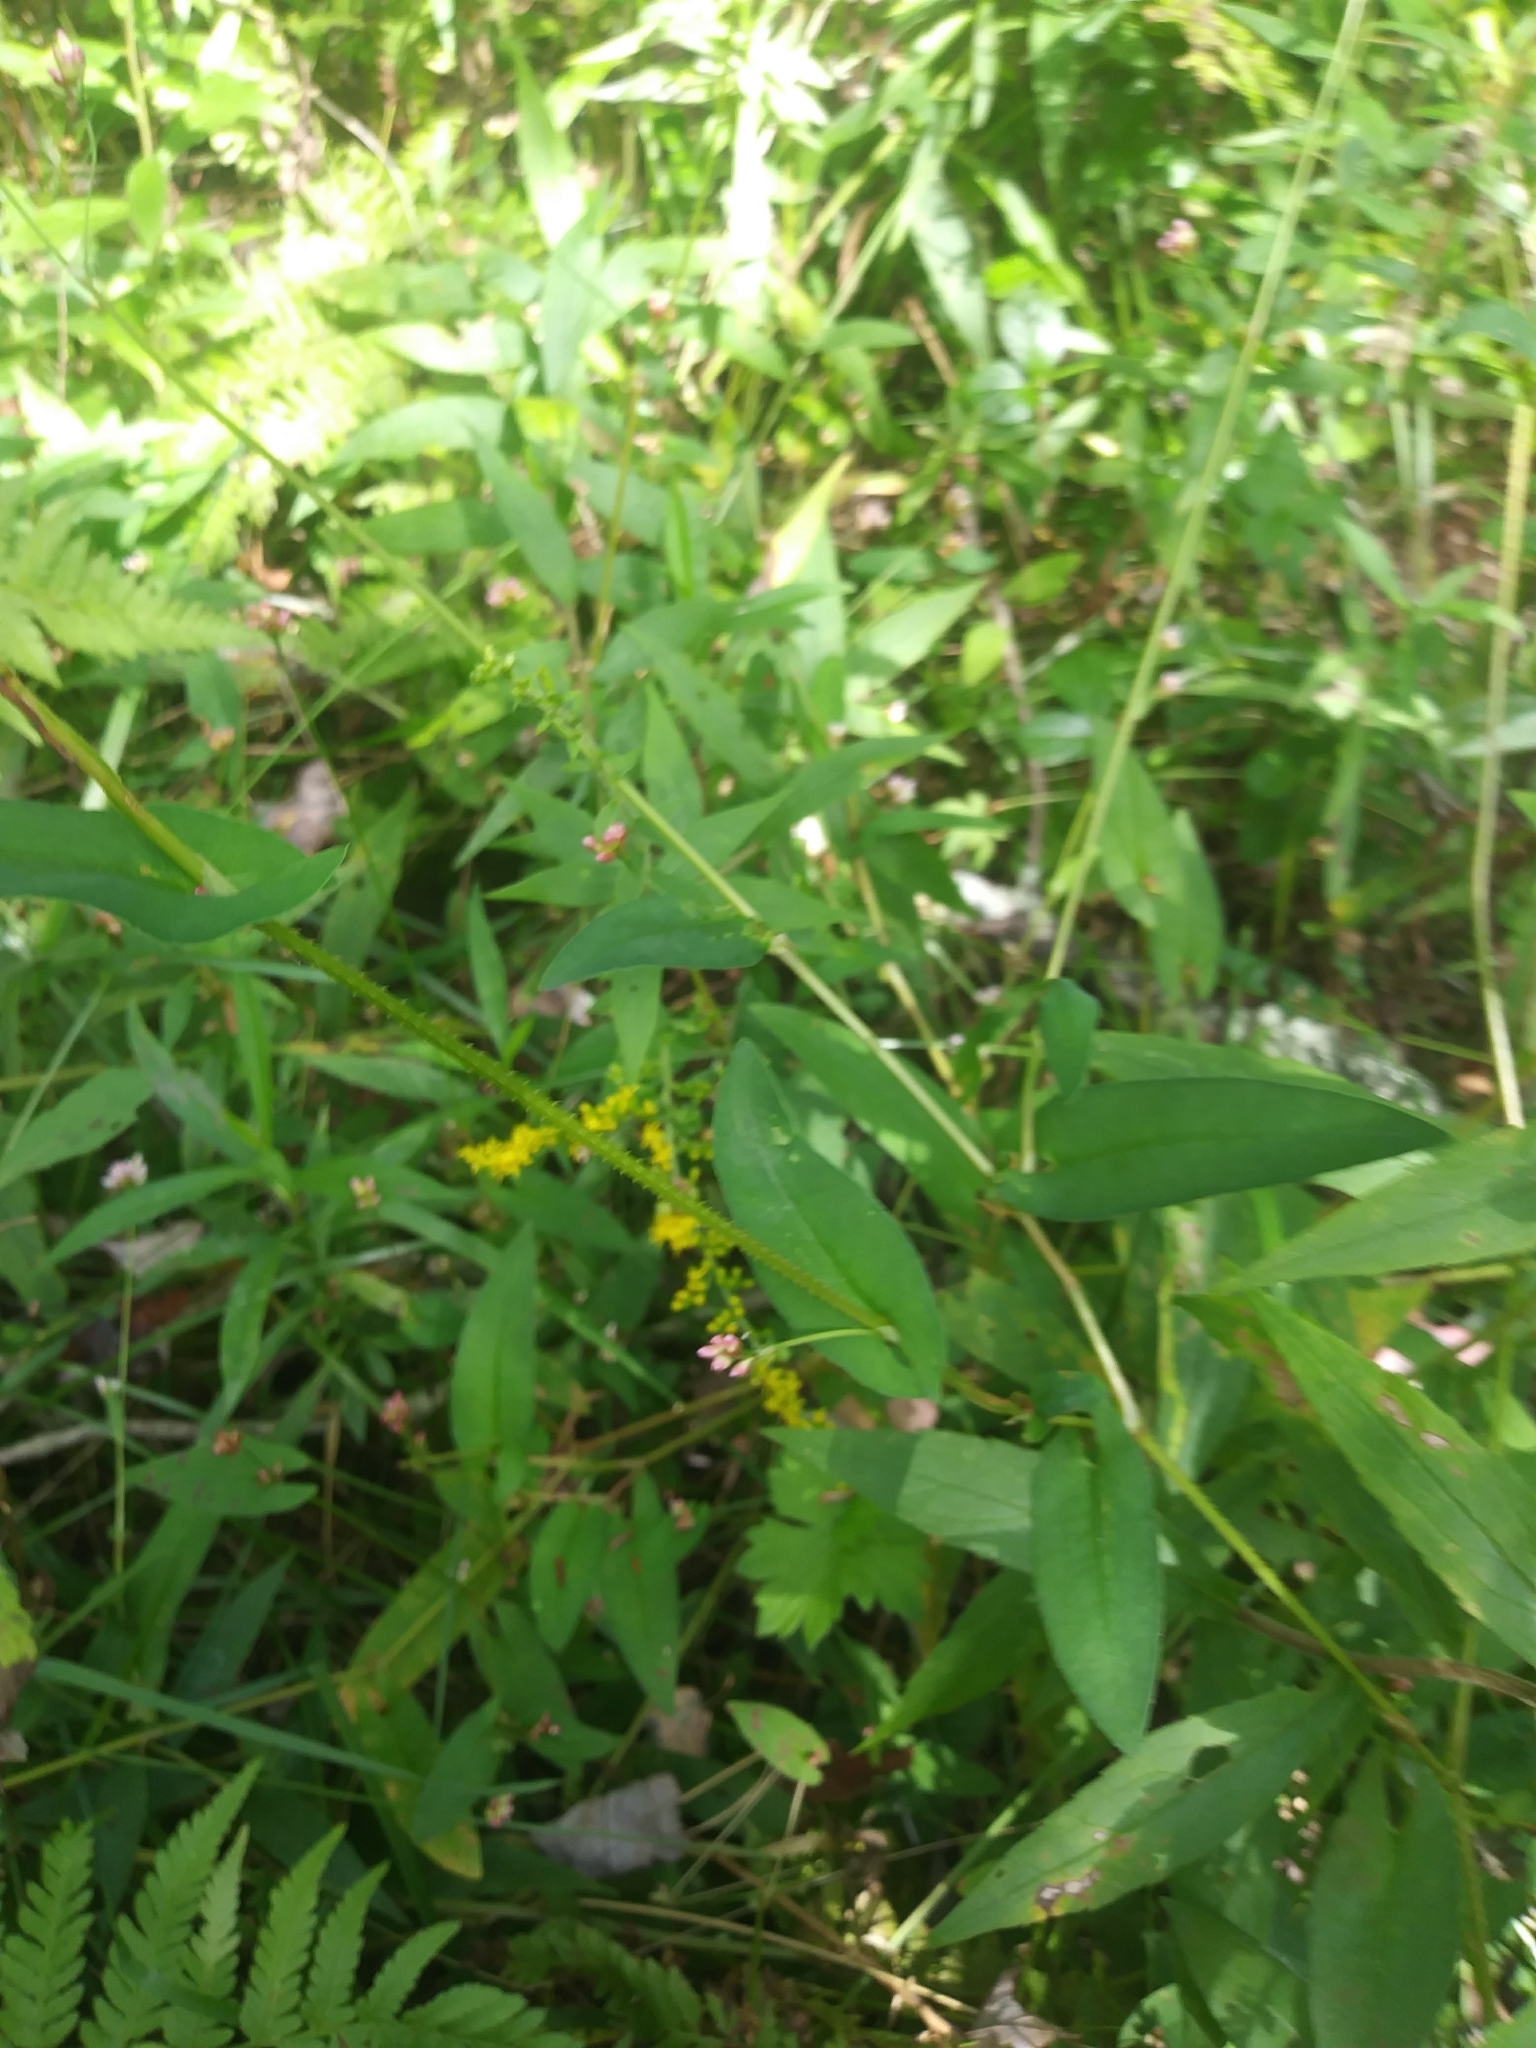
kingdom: Plantae
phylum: Tracheophyta
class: Magnoliopsida
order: Caryophyllales
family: Polygonaceae
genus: Persicaria
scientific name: Persicaria sagittata
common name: American tearthumb
